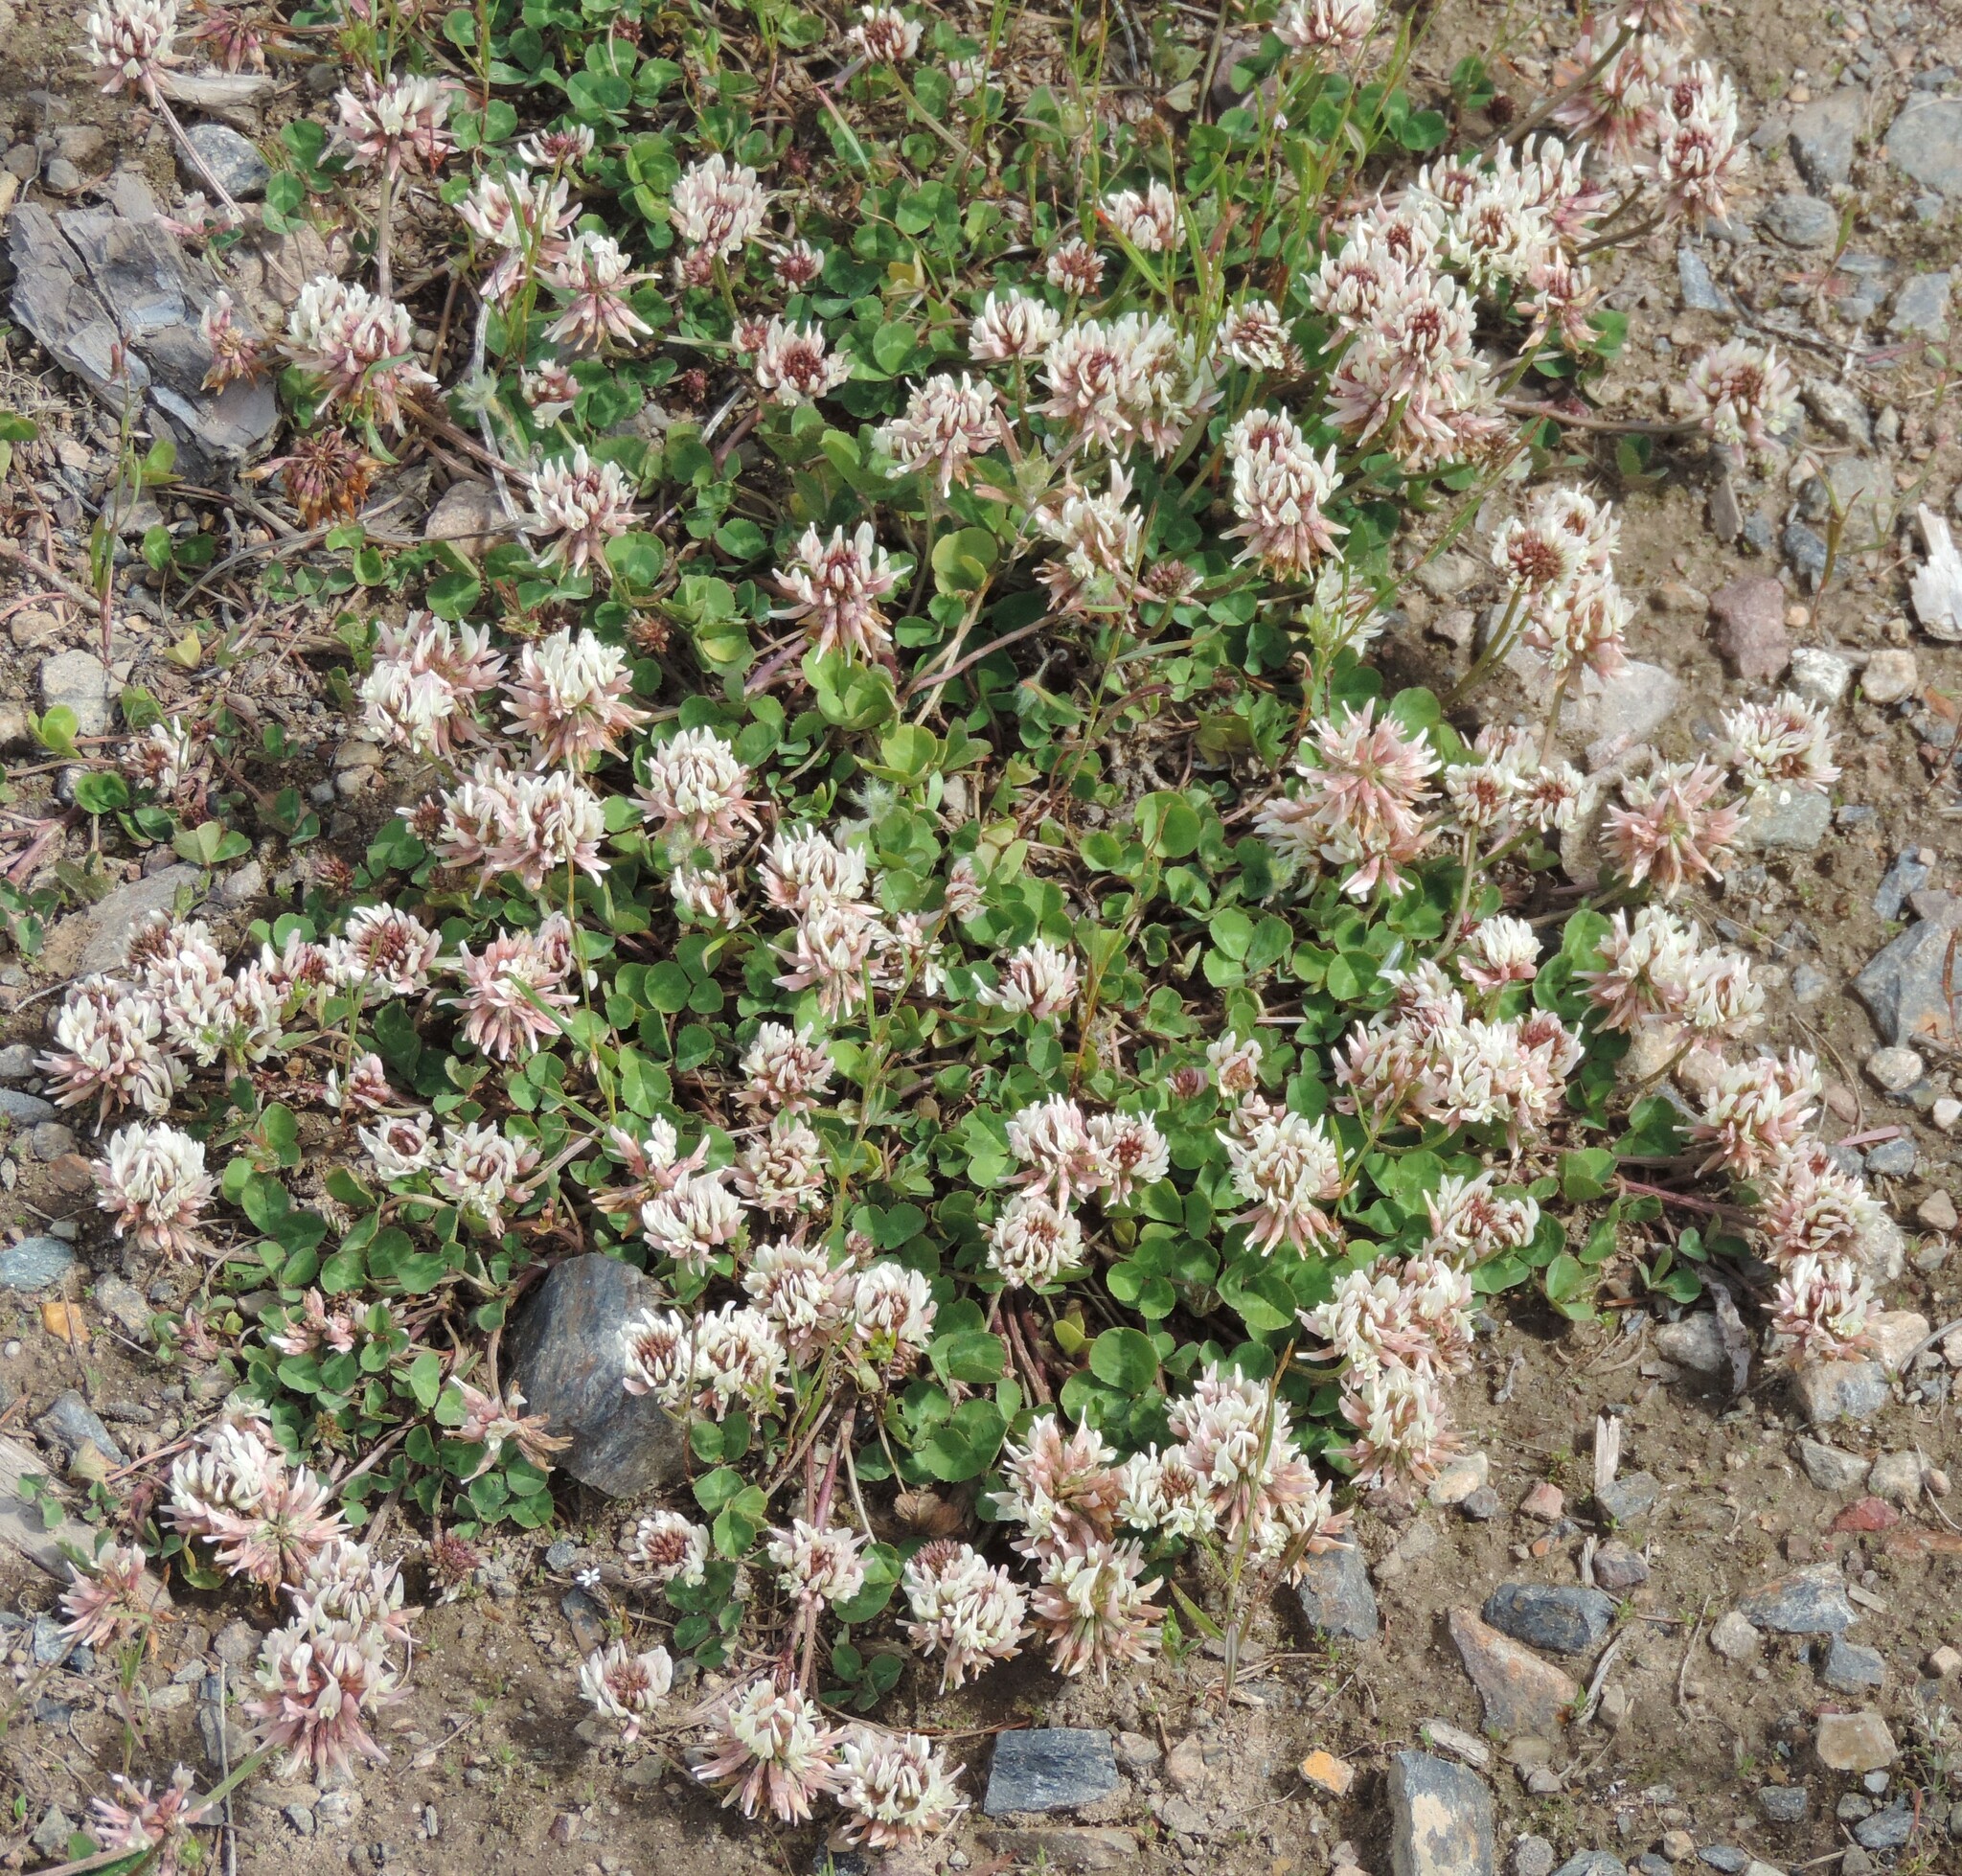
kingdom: Plantae
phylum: Tracheophyta
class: Magnoliopsida
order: Fabales
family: Fabaceae
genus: Trifolium
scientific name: Trifolium repens
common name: White clover
